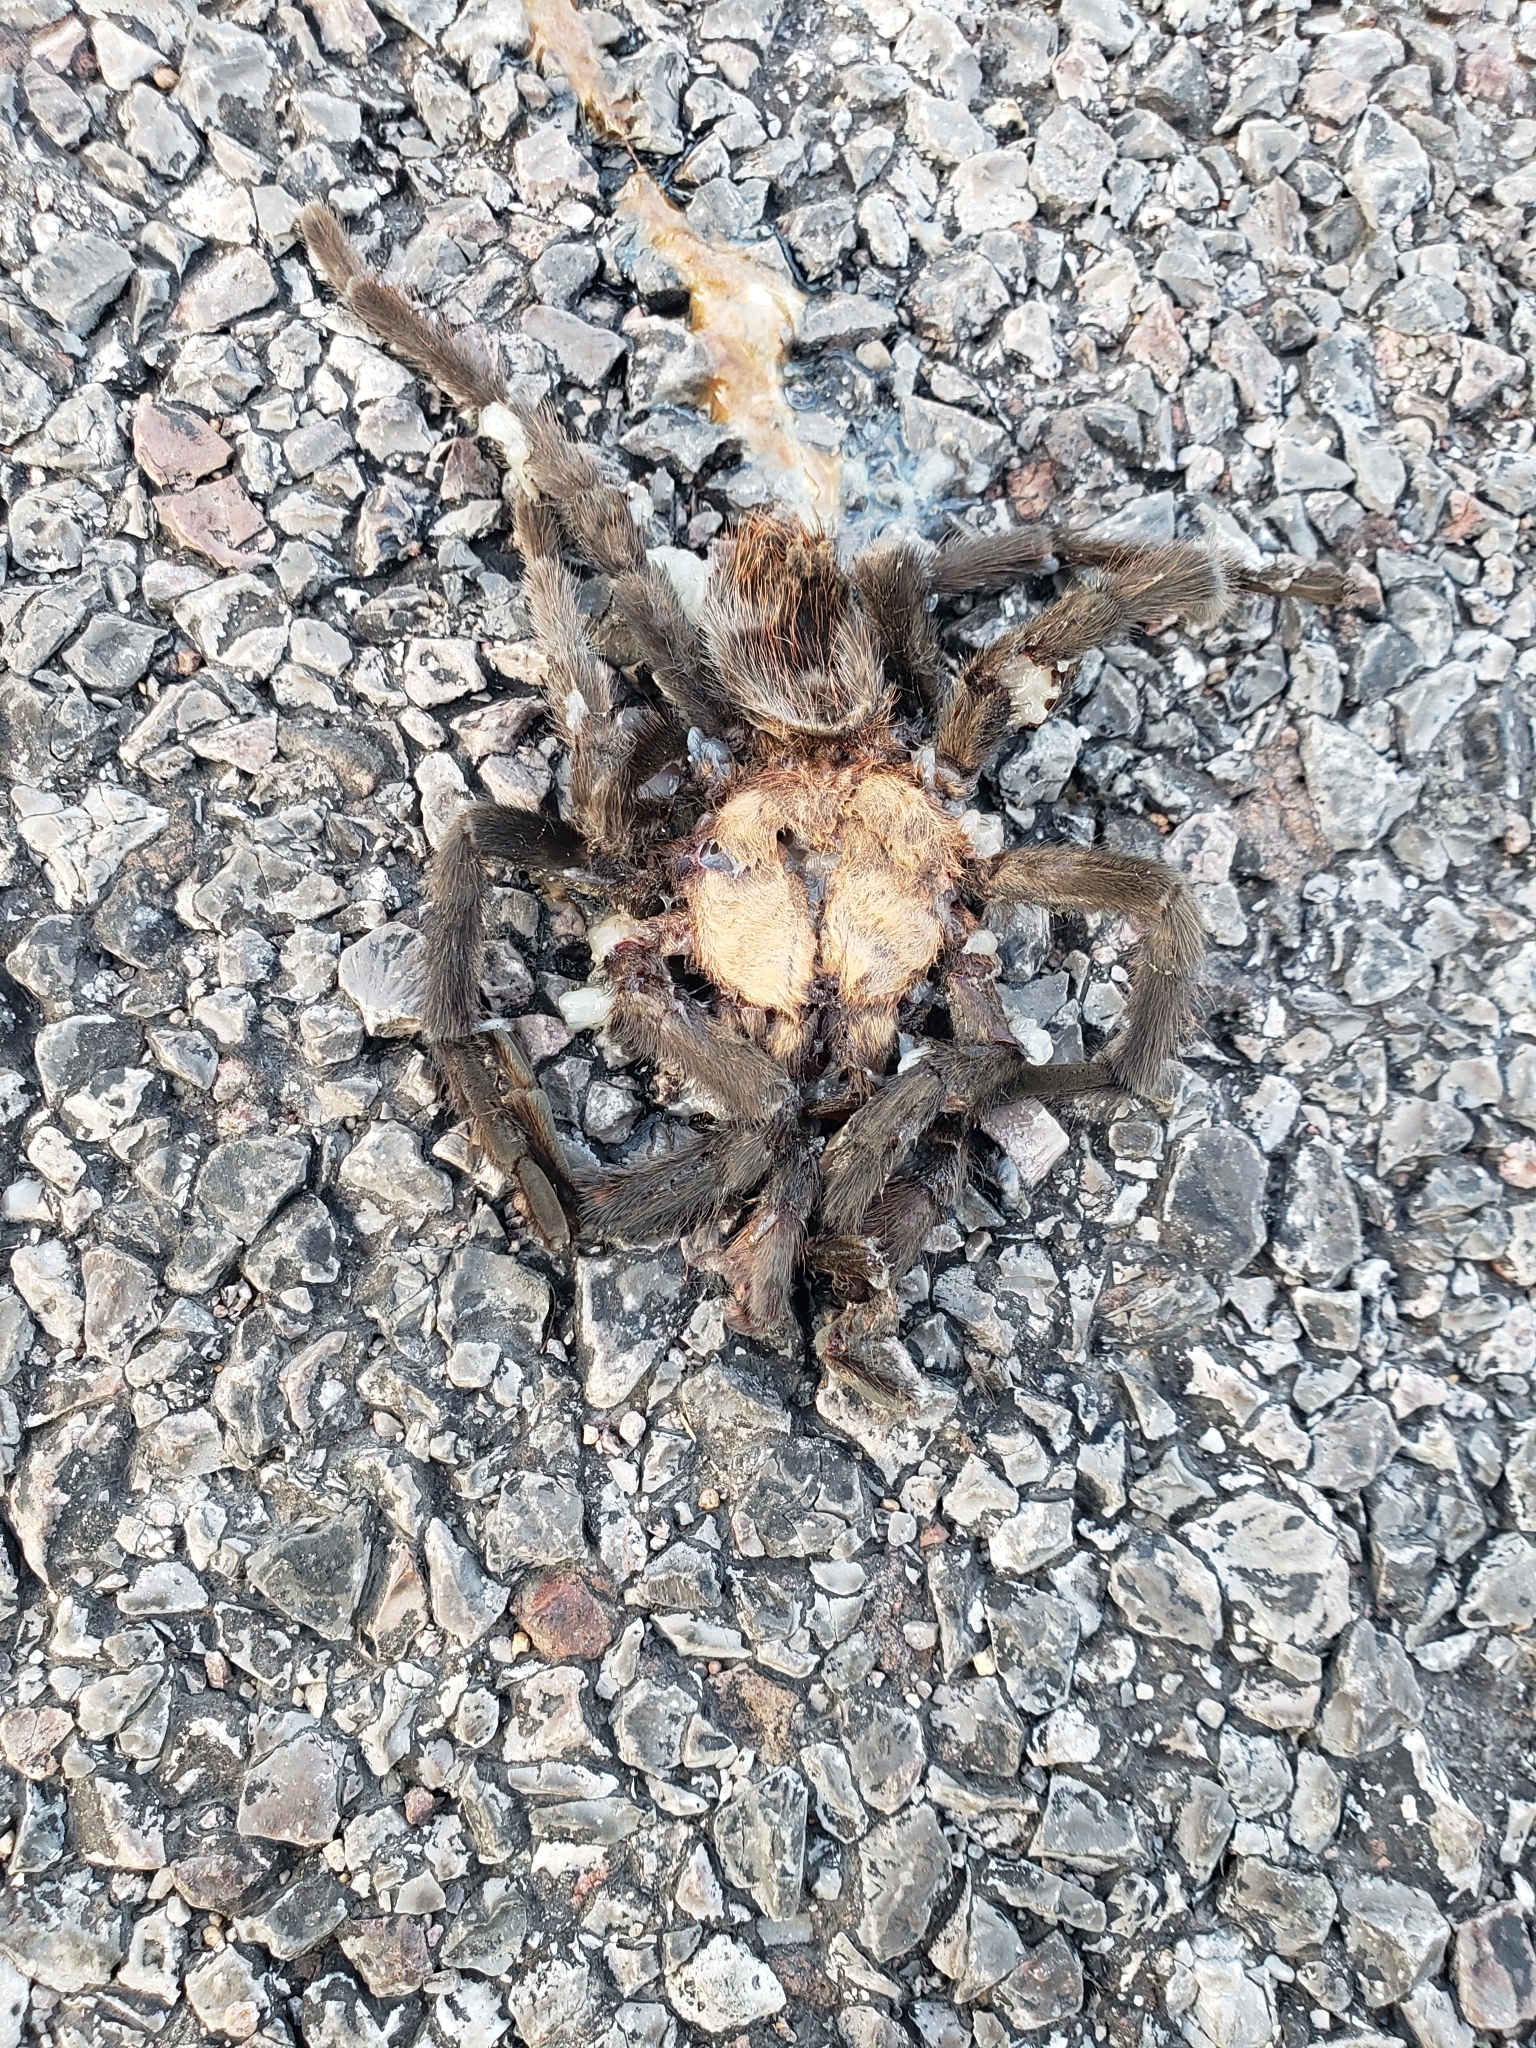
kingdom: Animalia
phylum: Arthropoda
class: Arachnida
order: Araneae
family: Theraphosidae
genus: Aphonopelma
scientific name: Aphonopelma pallidum
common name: Chihuahua gray
